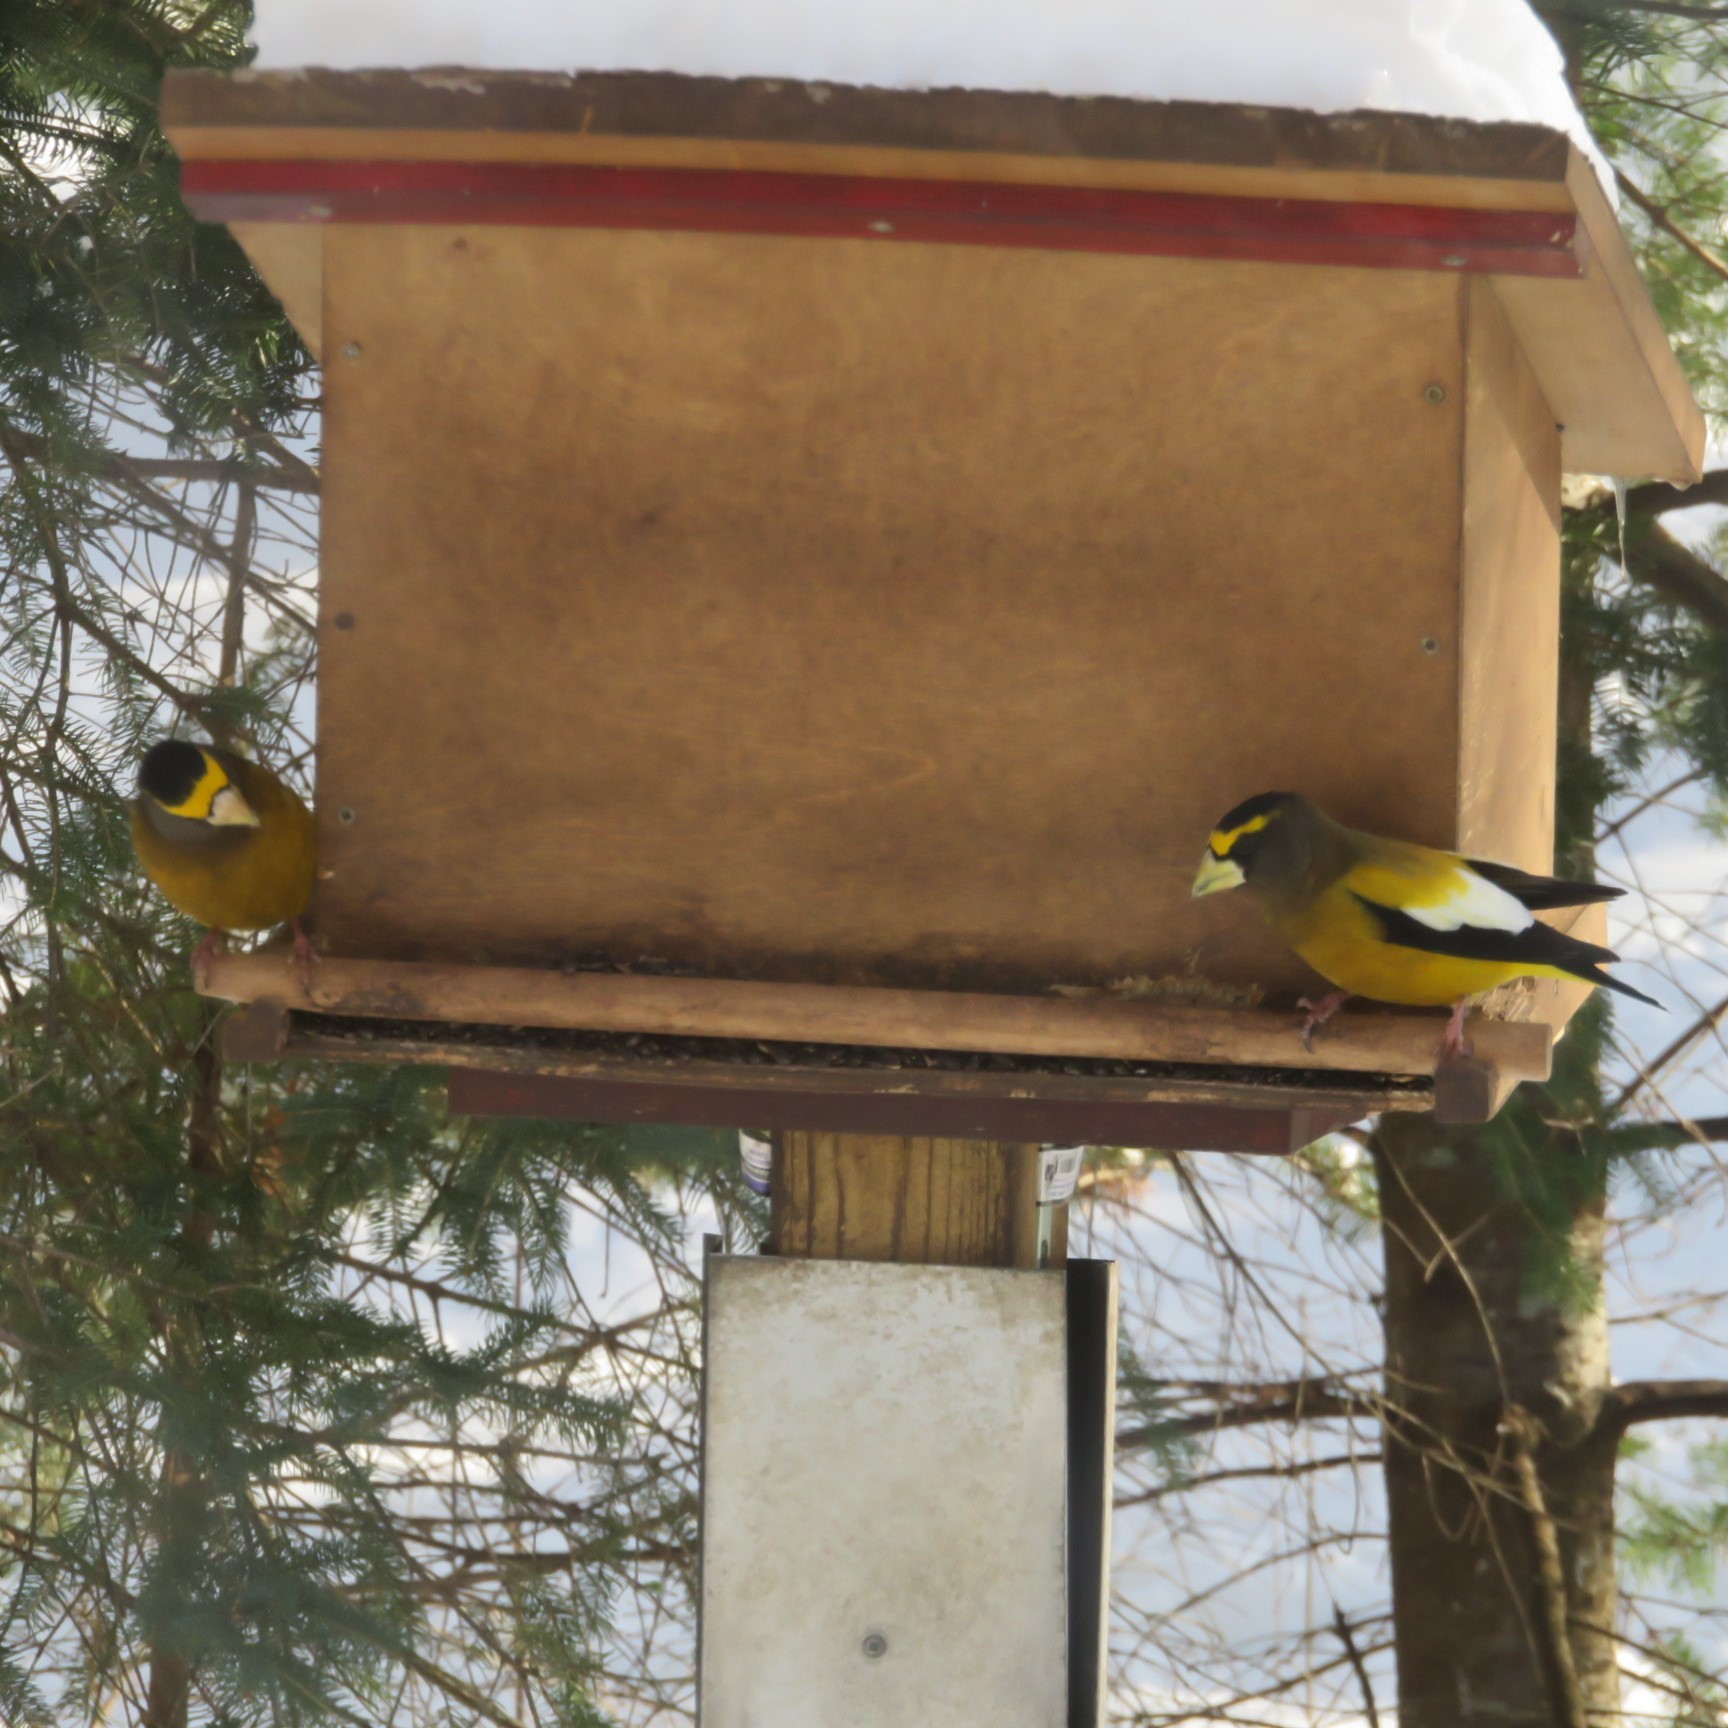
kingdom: Animalia
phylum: Chordata
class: Aves
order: Passeriformes
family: Fringillidae
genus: Hesperiphona
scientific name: Hesperiphona vespertina
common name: Evening grosbeak
